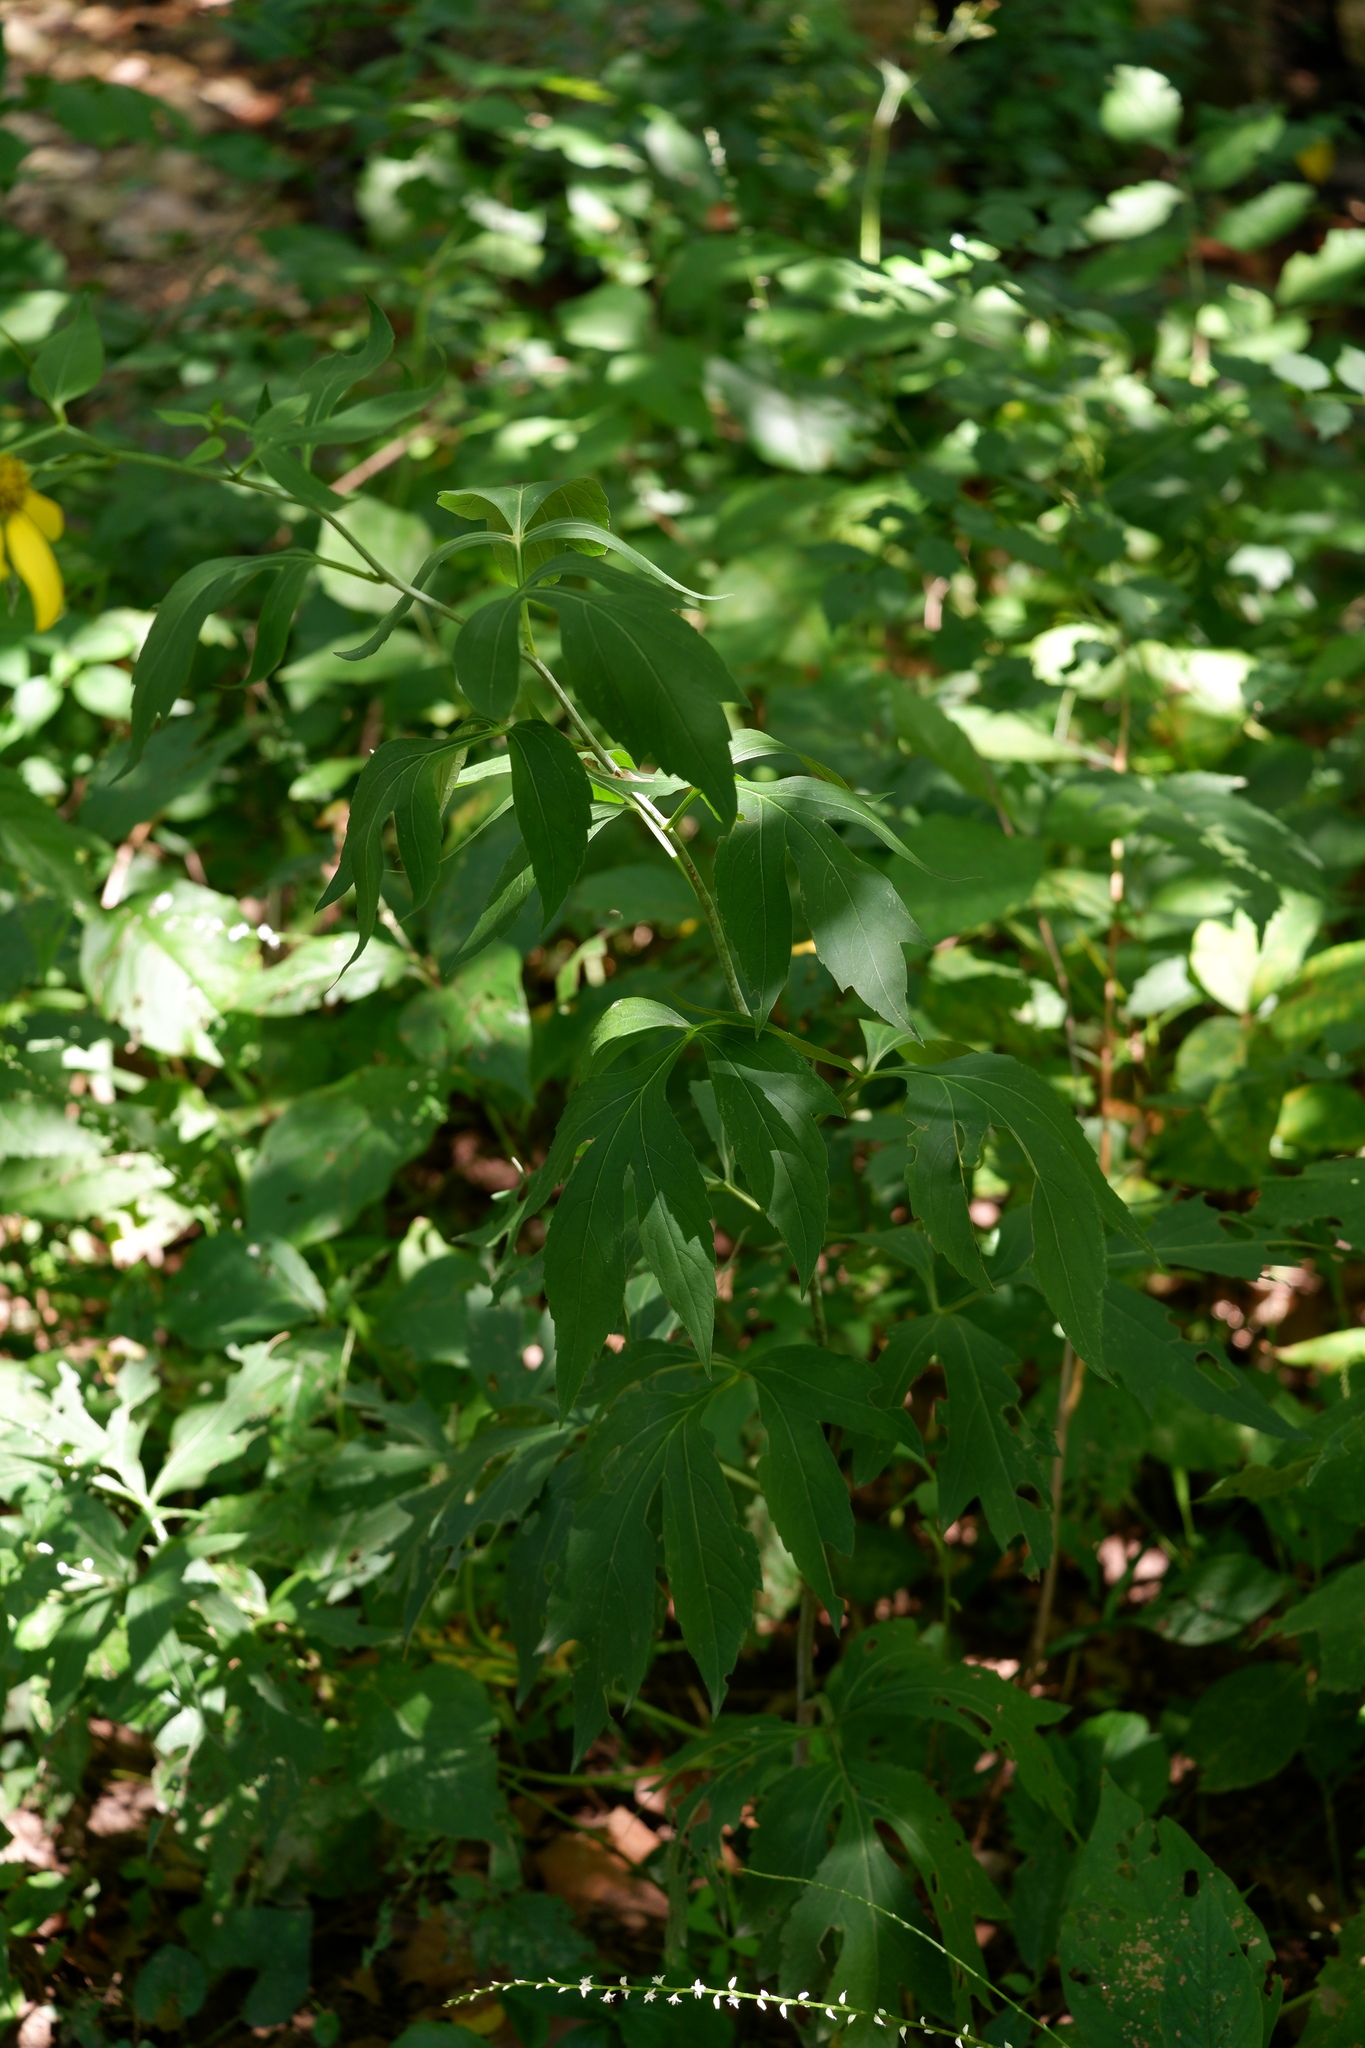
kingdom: Plantae
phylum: Tracheophyta
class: Magnoliopsida
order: Asterales
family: Asteraceae
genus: Rudbeckia
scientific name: Rudbeckia laciniata
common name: Coneflower
